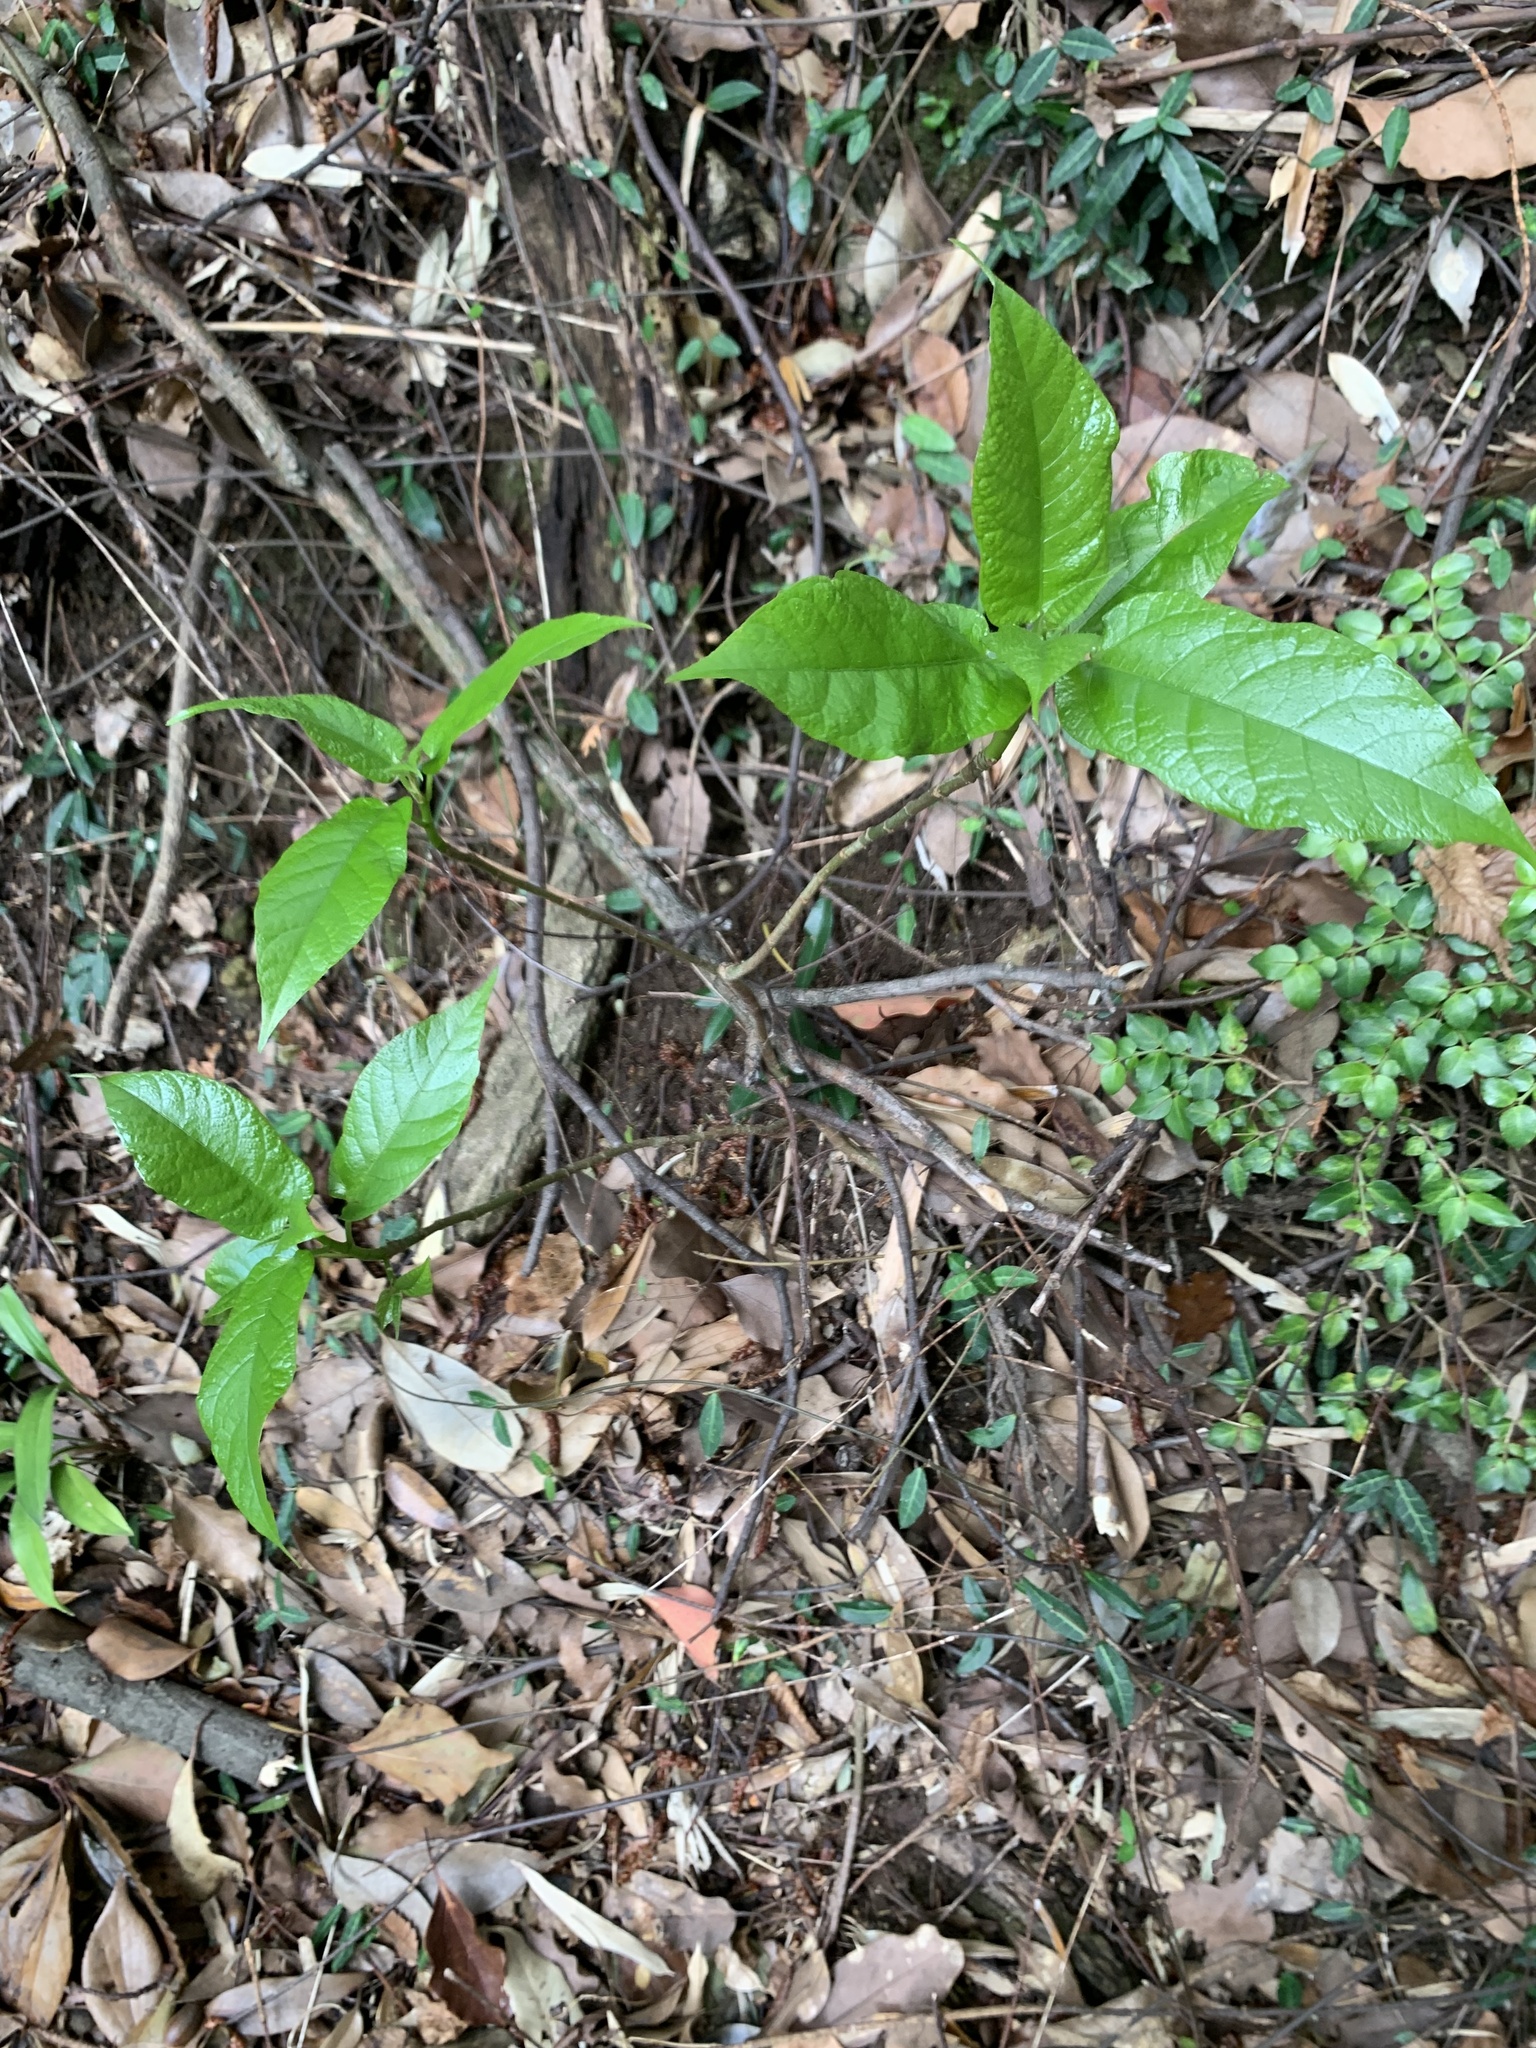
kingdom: Plantae
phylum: Tracheophyta
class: Magnoliopsida
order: Rosales
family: Moraceae
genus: Ficus
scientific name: Ficus erecta
